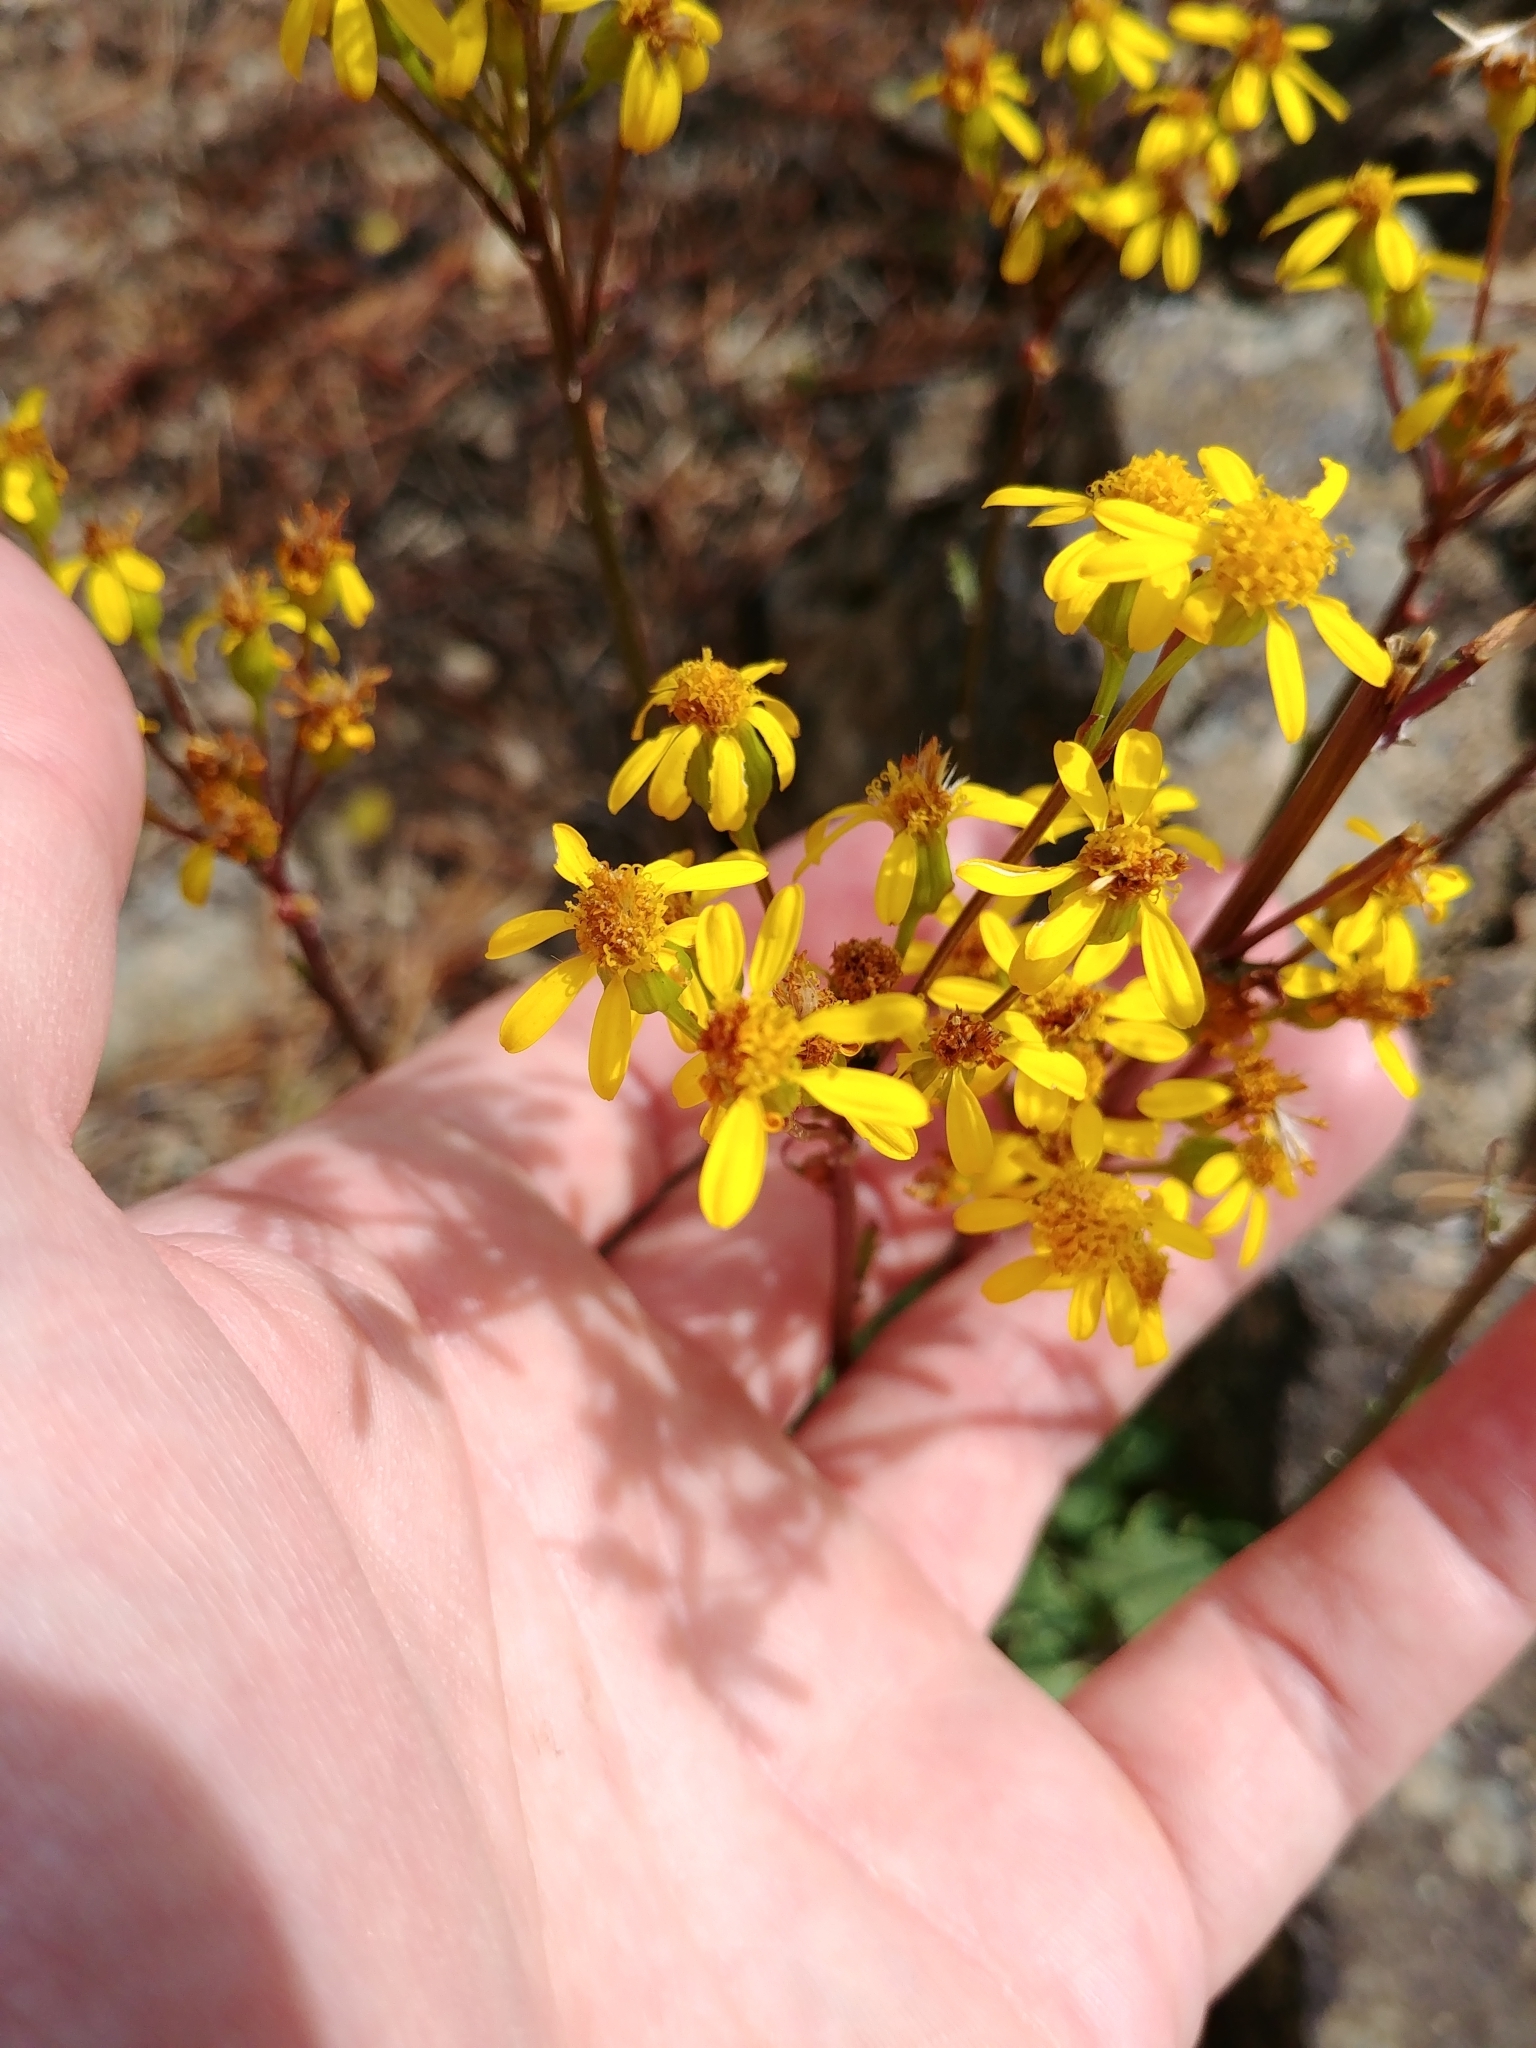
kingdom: Plantae
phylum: Tracheophyta
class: Magnoliopsida
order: Asterales
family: Asteraceae
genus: Packera
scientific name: Packera streptanthifolia
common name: Rocky mountain butterweed
